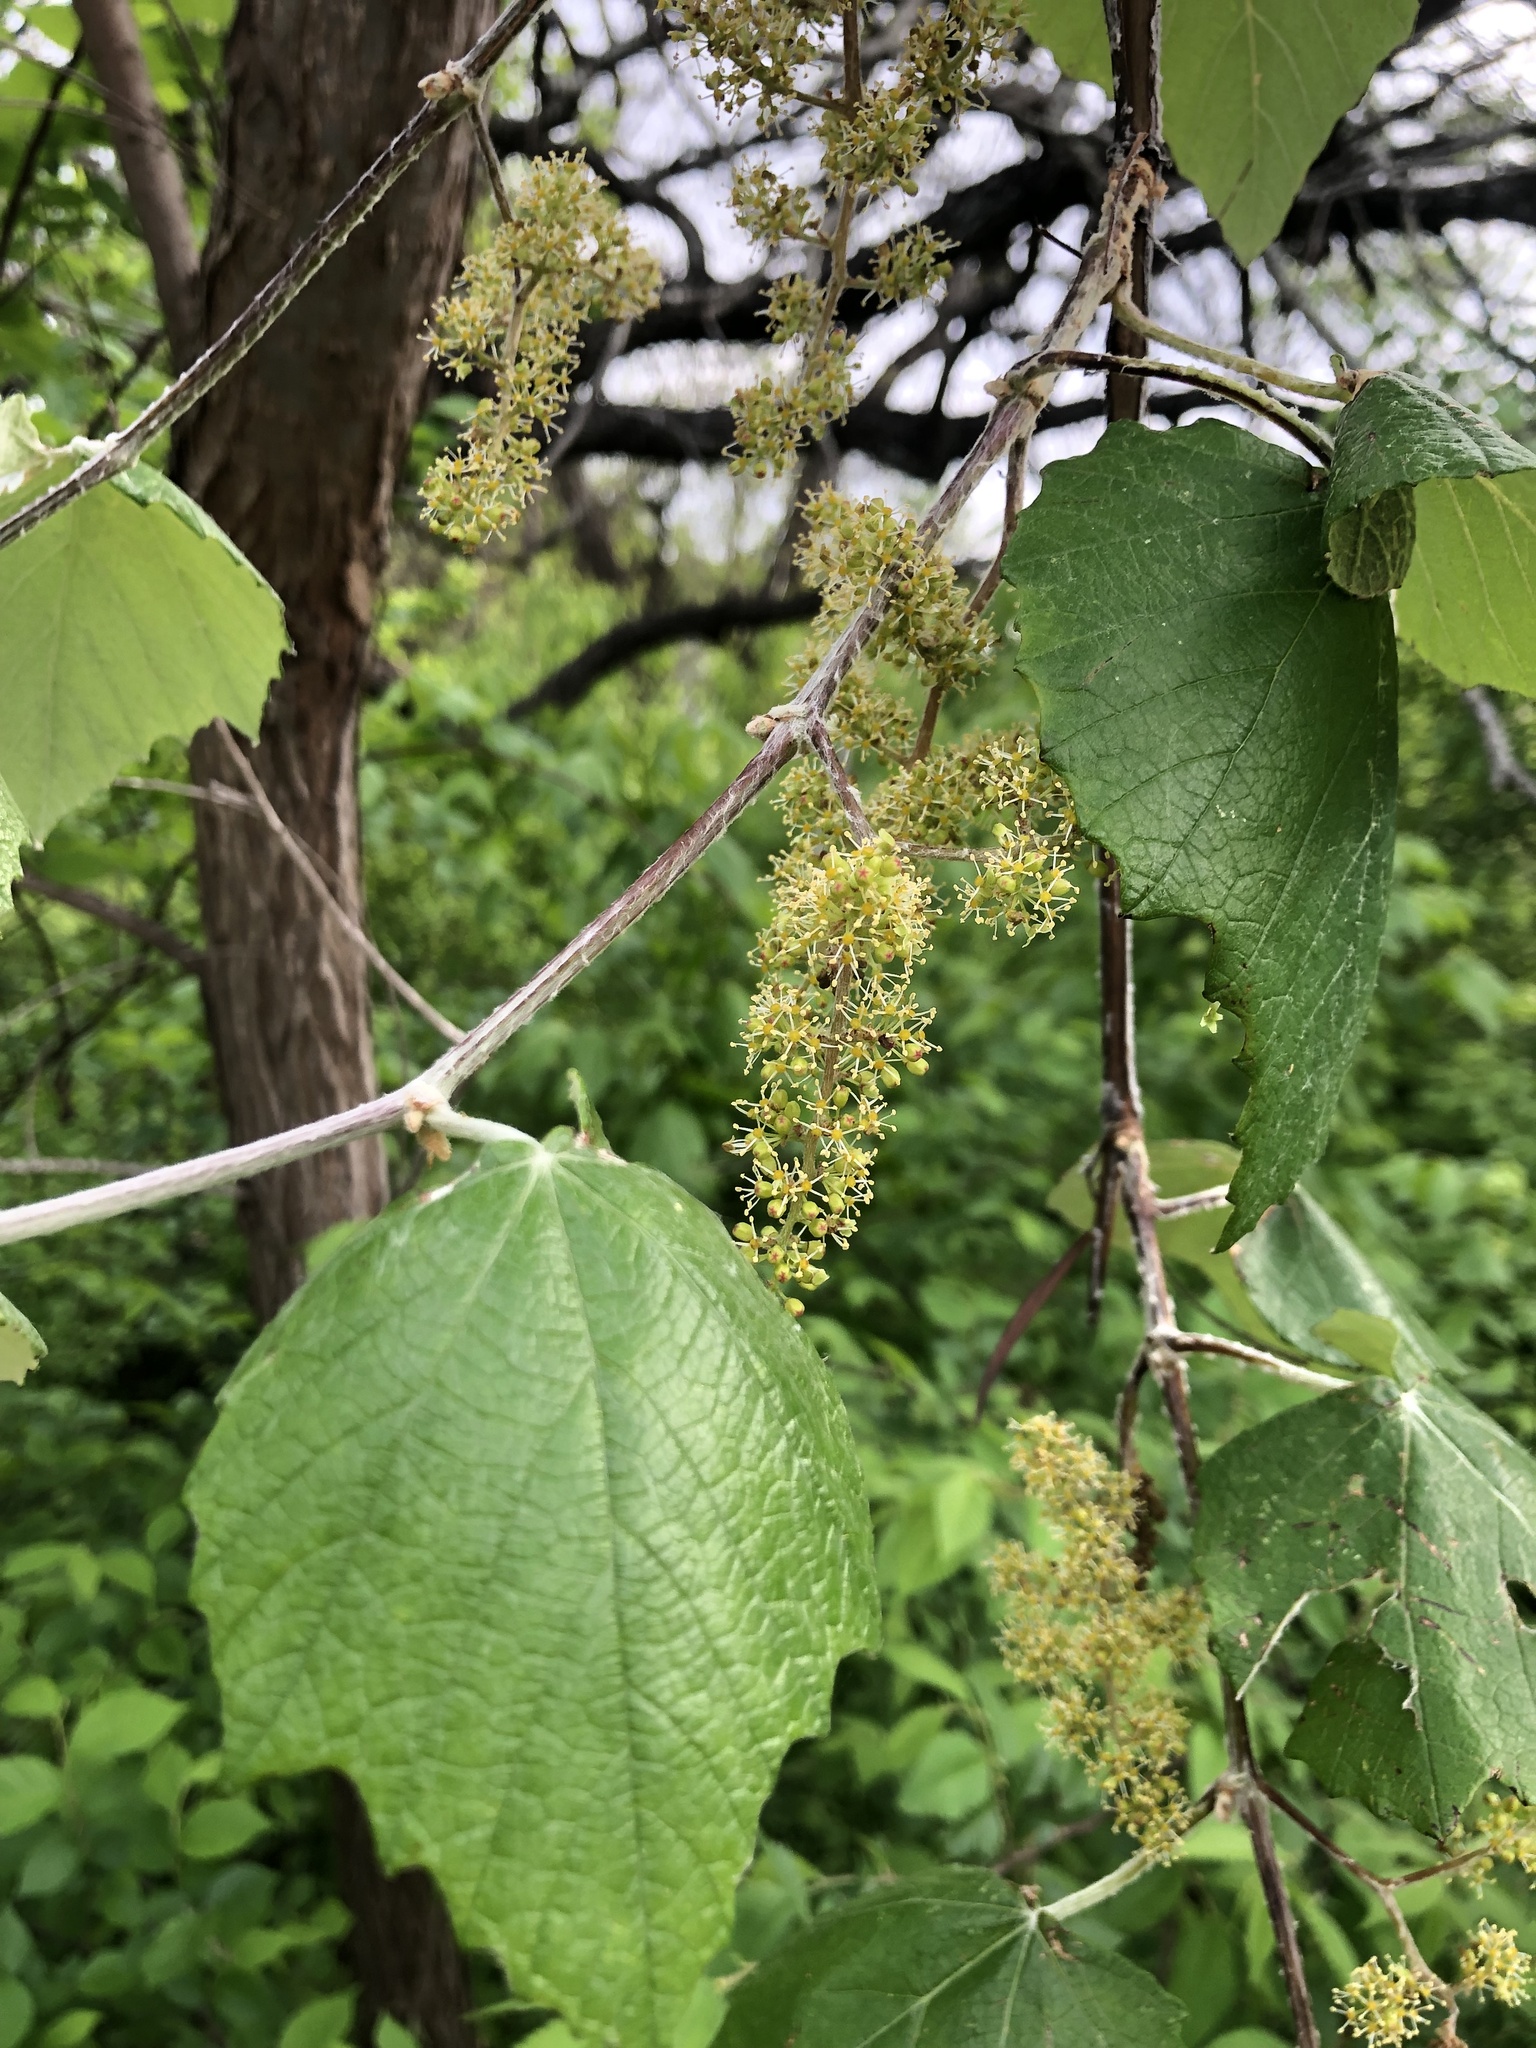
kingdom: Plantae
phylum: Tracheophyta
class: Magnoliopsida
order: Vitales
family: Vitaceae
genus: Vitis
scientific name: Vitis mustangensis
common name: Mustang grape
